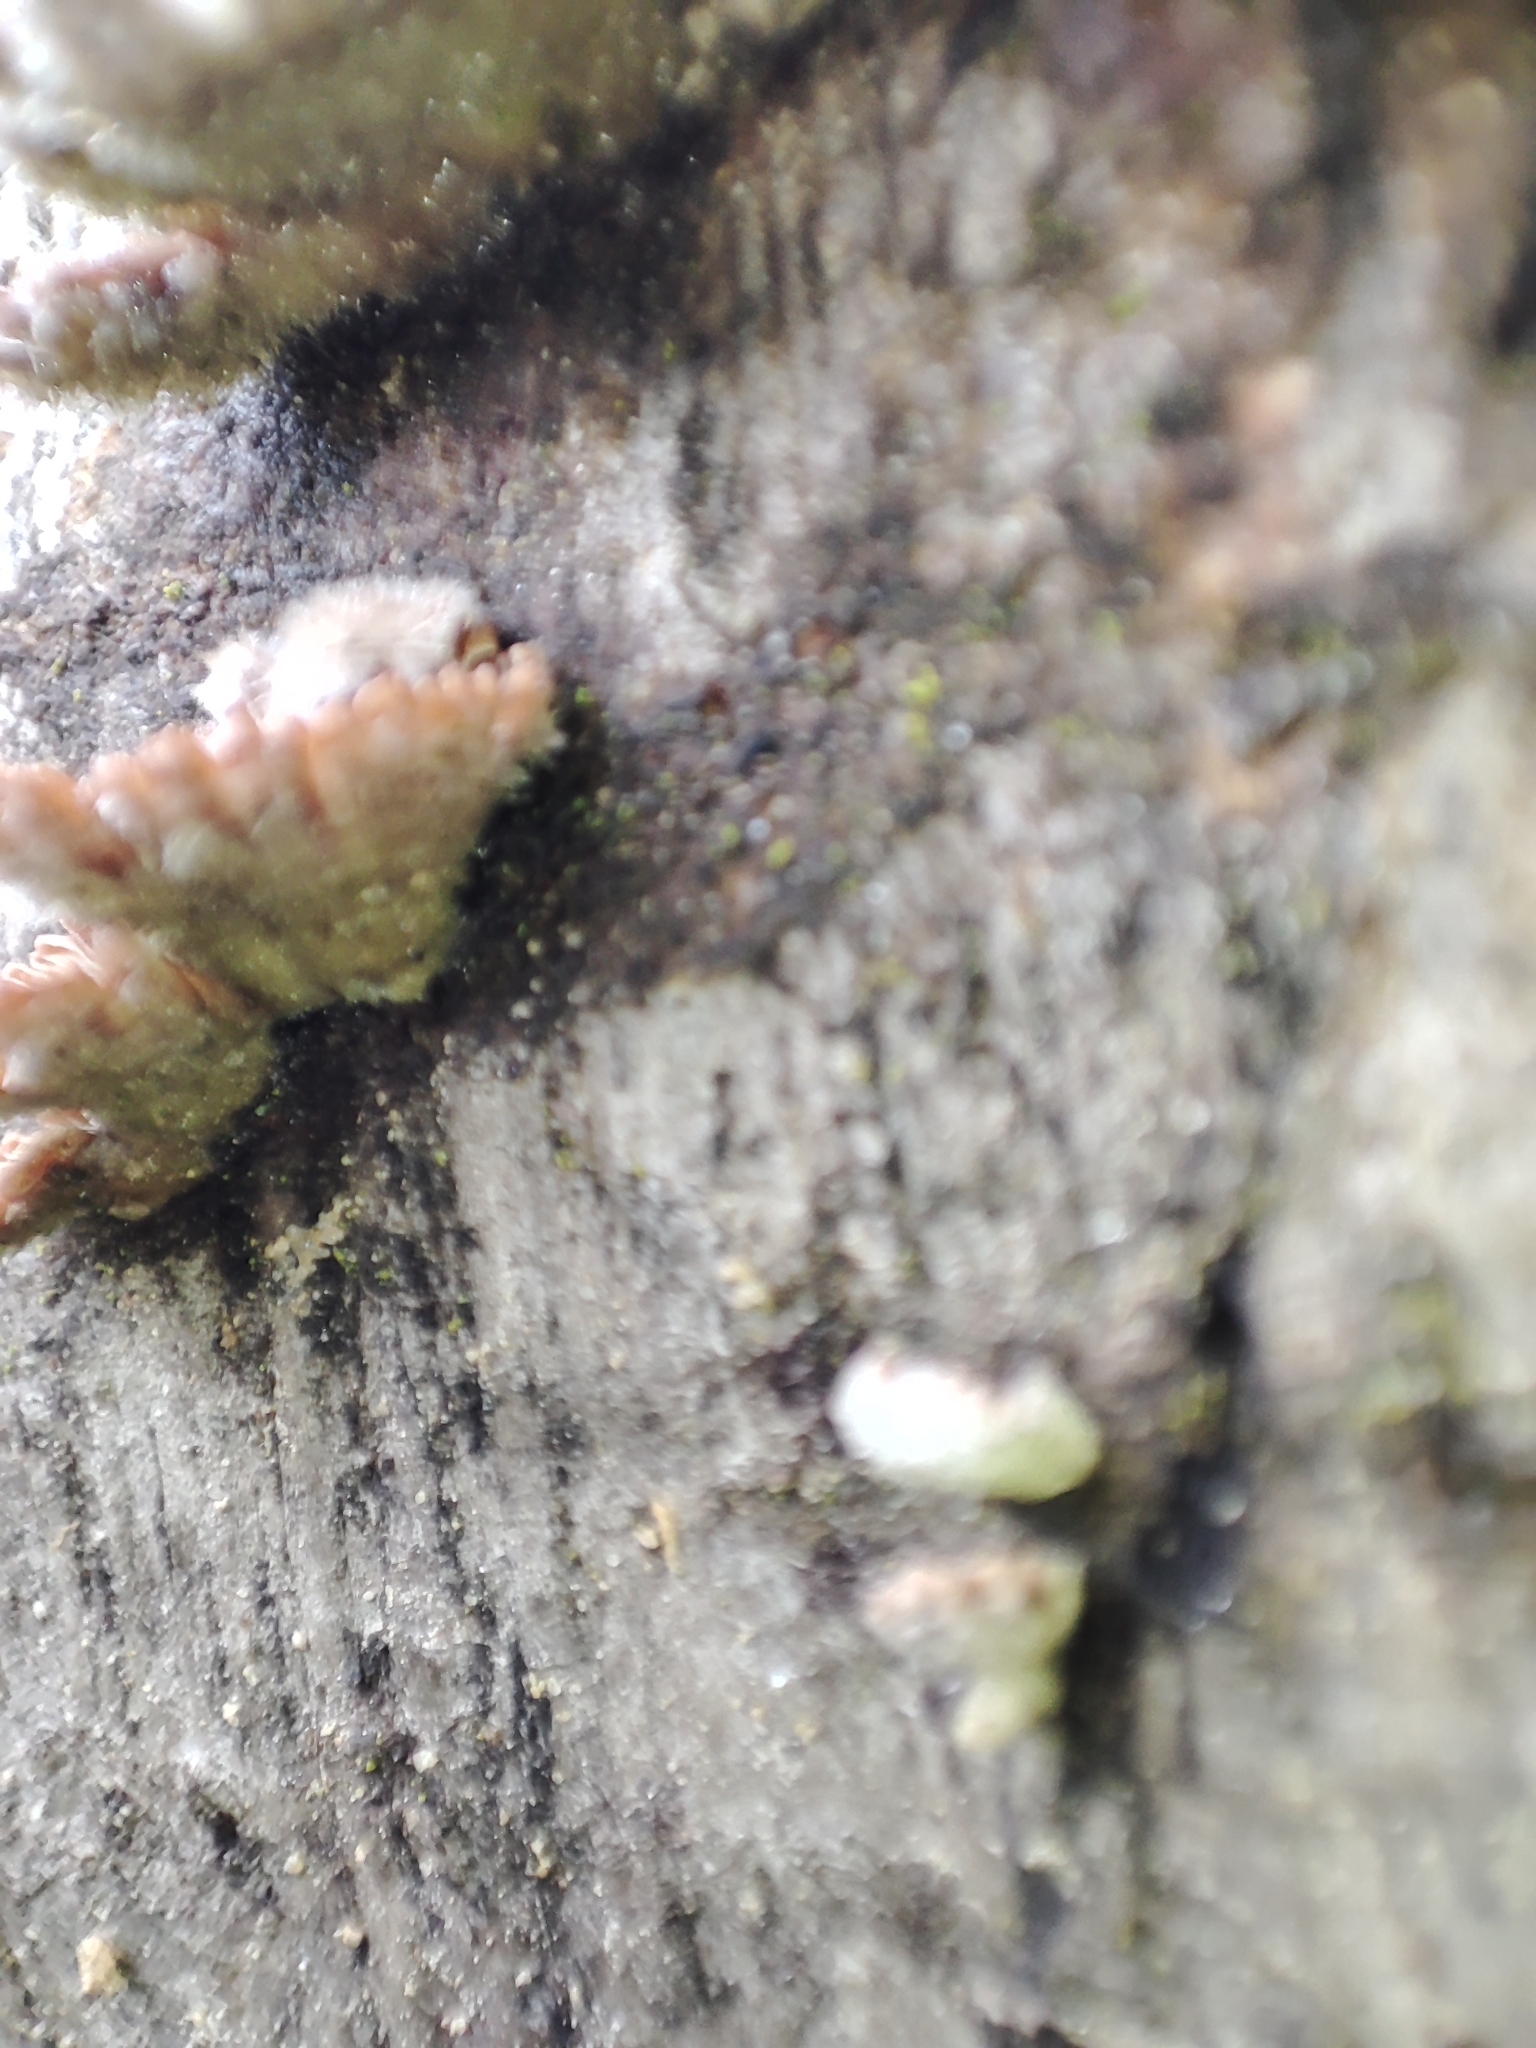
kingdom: Fungi
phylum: Basidiomycota
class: Agaricomycetes
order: Agaricales
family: Schizophyllaceae
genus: Schizophyllum
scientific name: Schizophyllum commune
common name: Common porecrust
